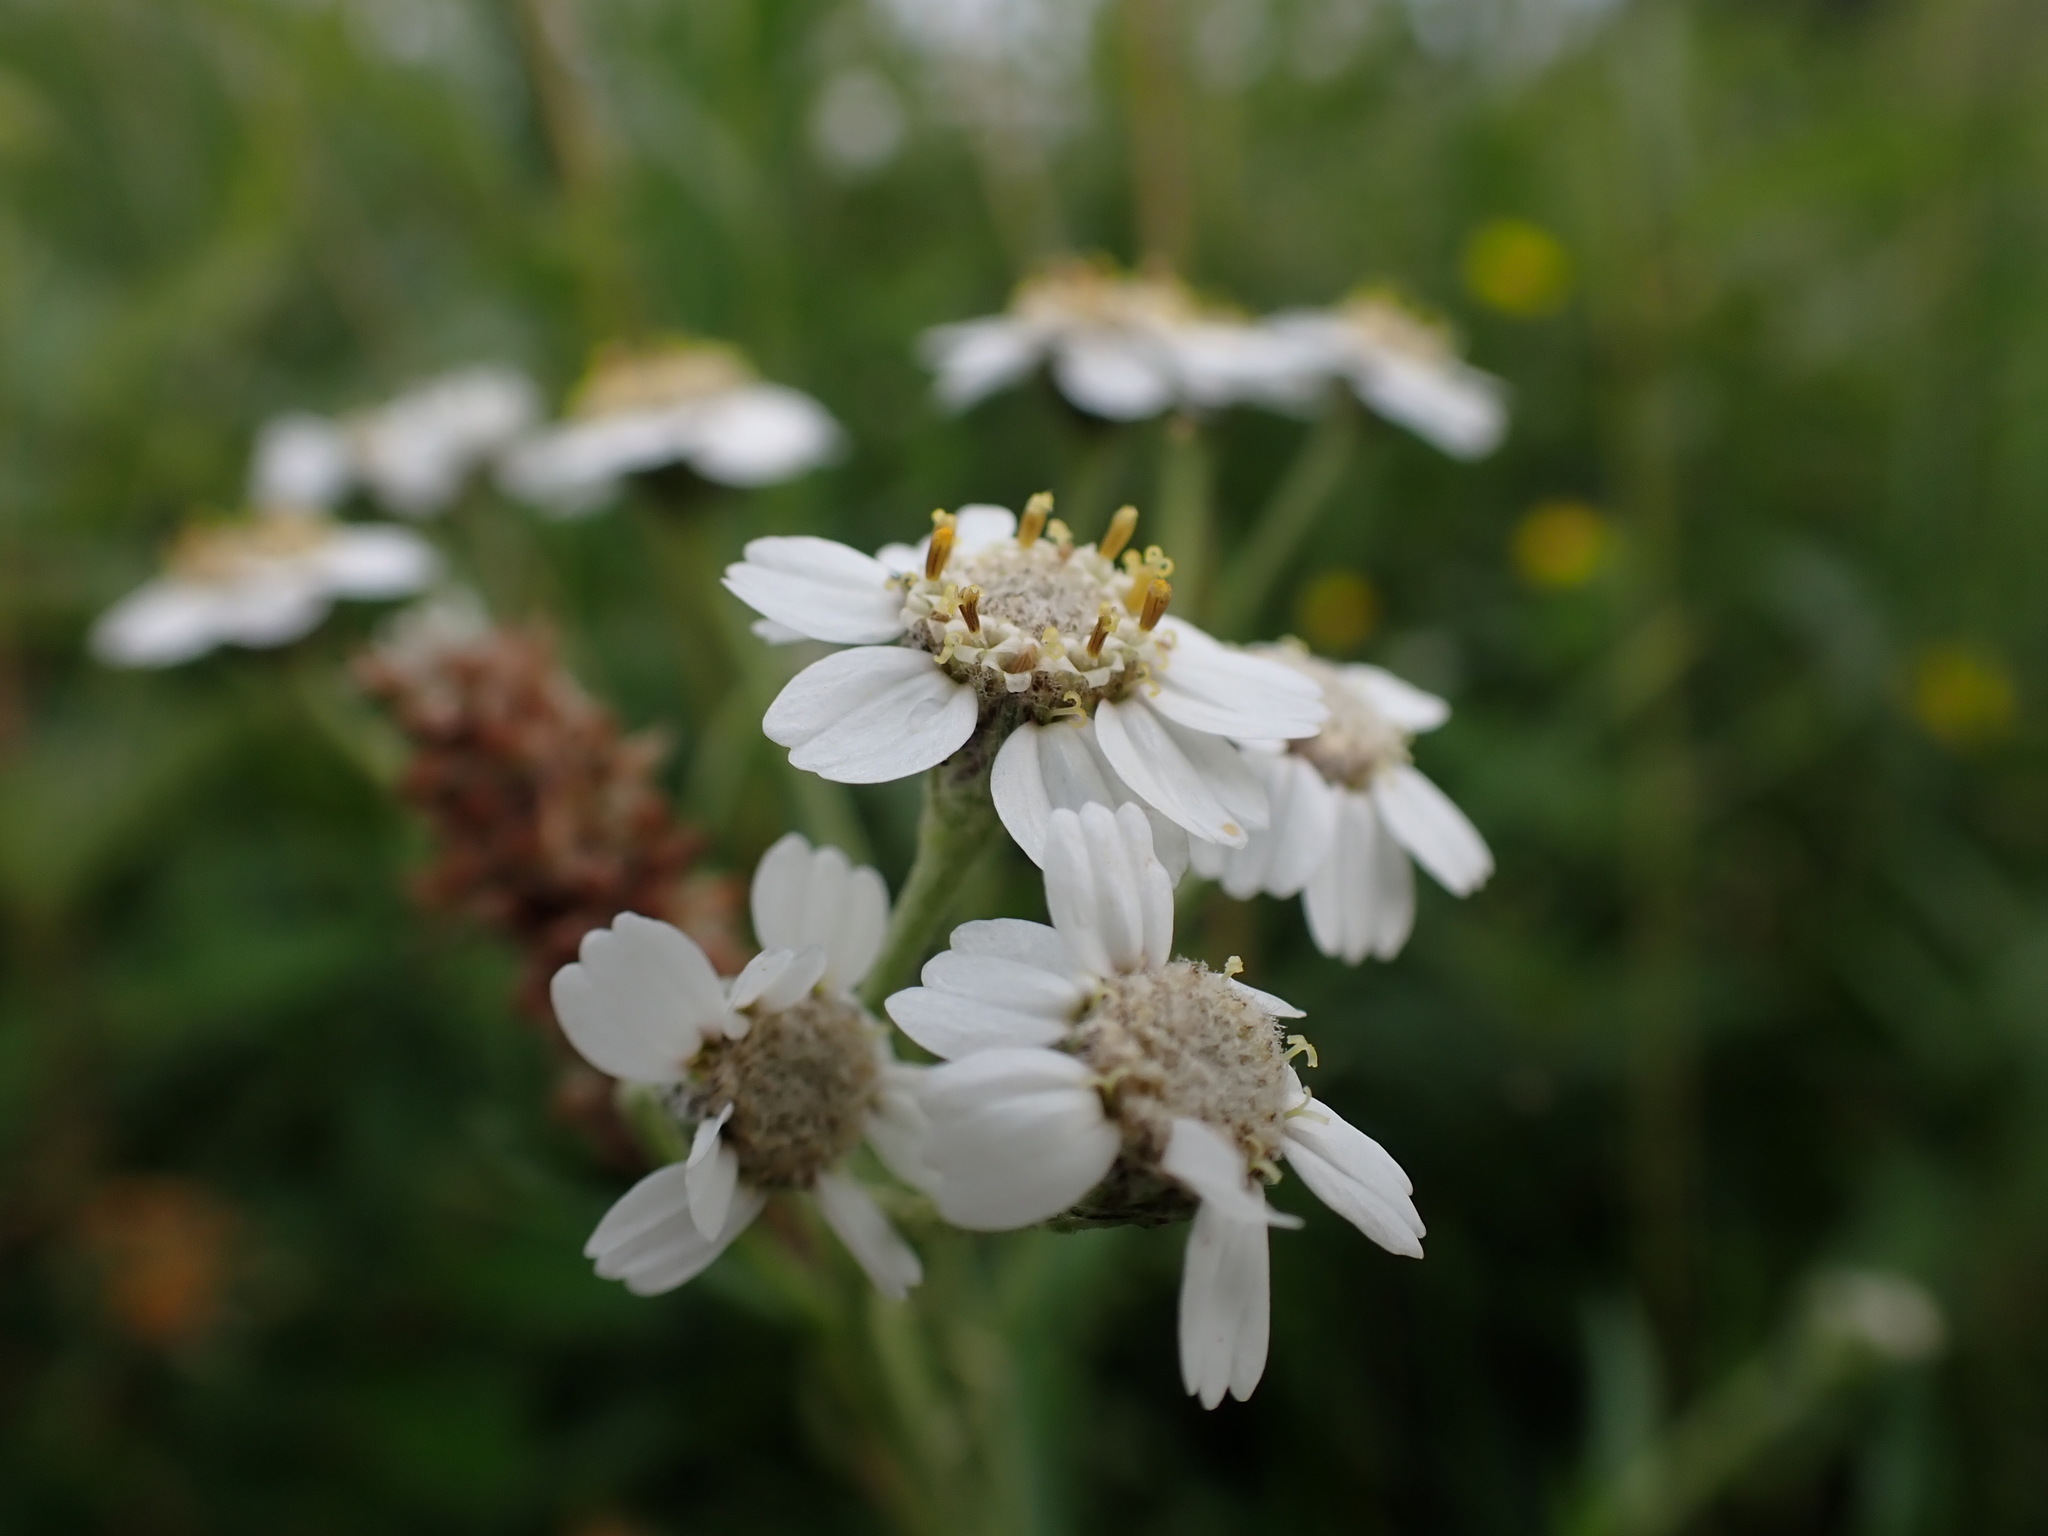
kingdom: Plantae
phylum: Tracheophyta
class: Magnoliopsida
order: Asterales
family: Asteraceae
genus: Achillea
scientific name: Achillea ptarmica
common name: Sneezeweed
